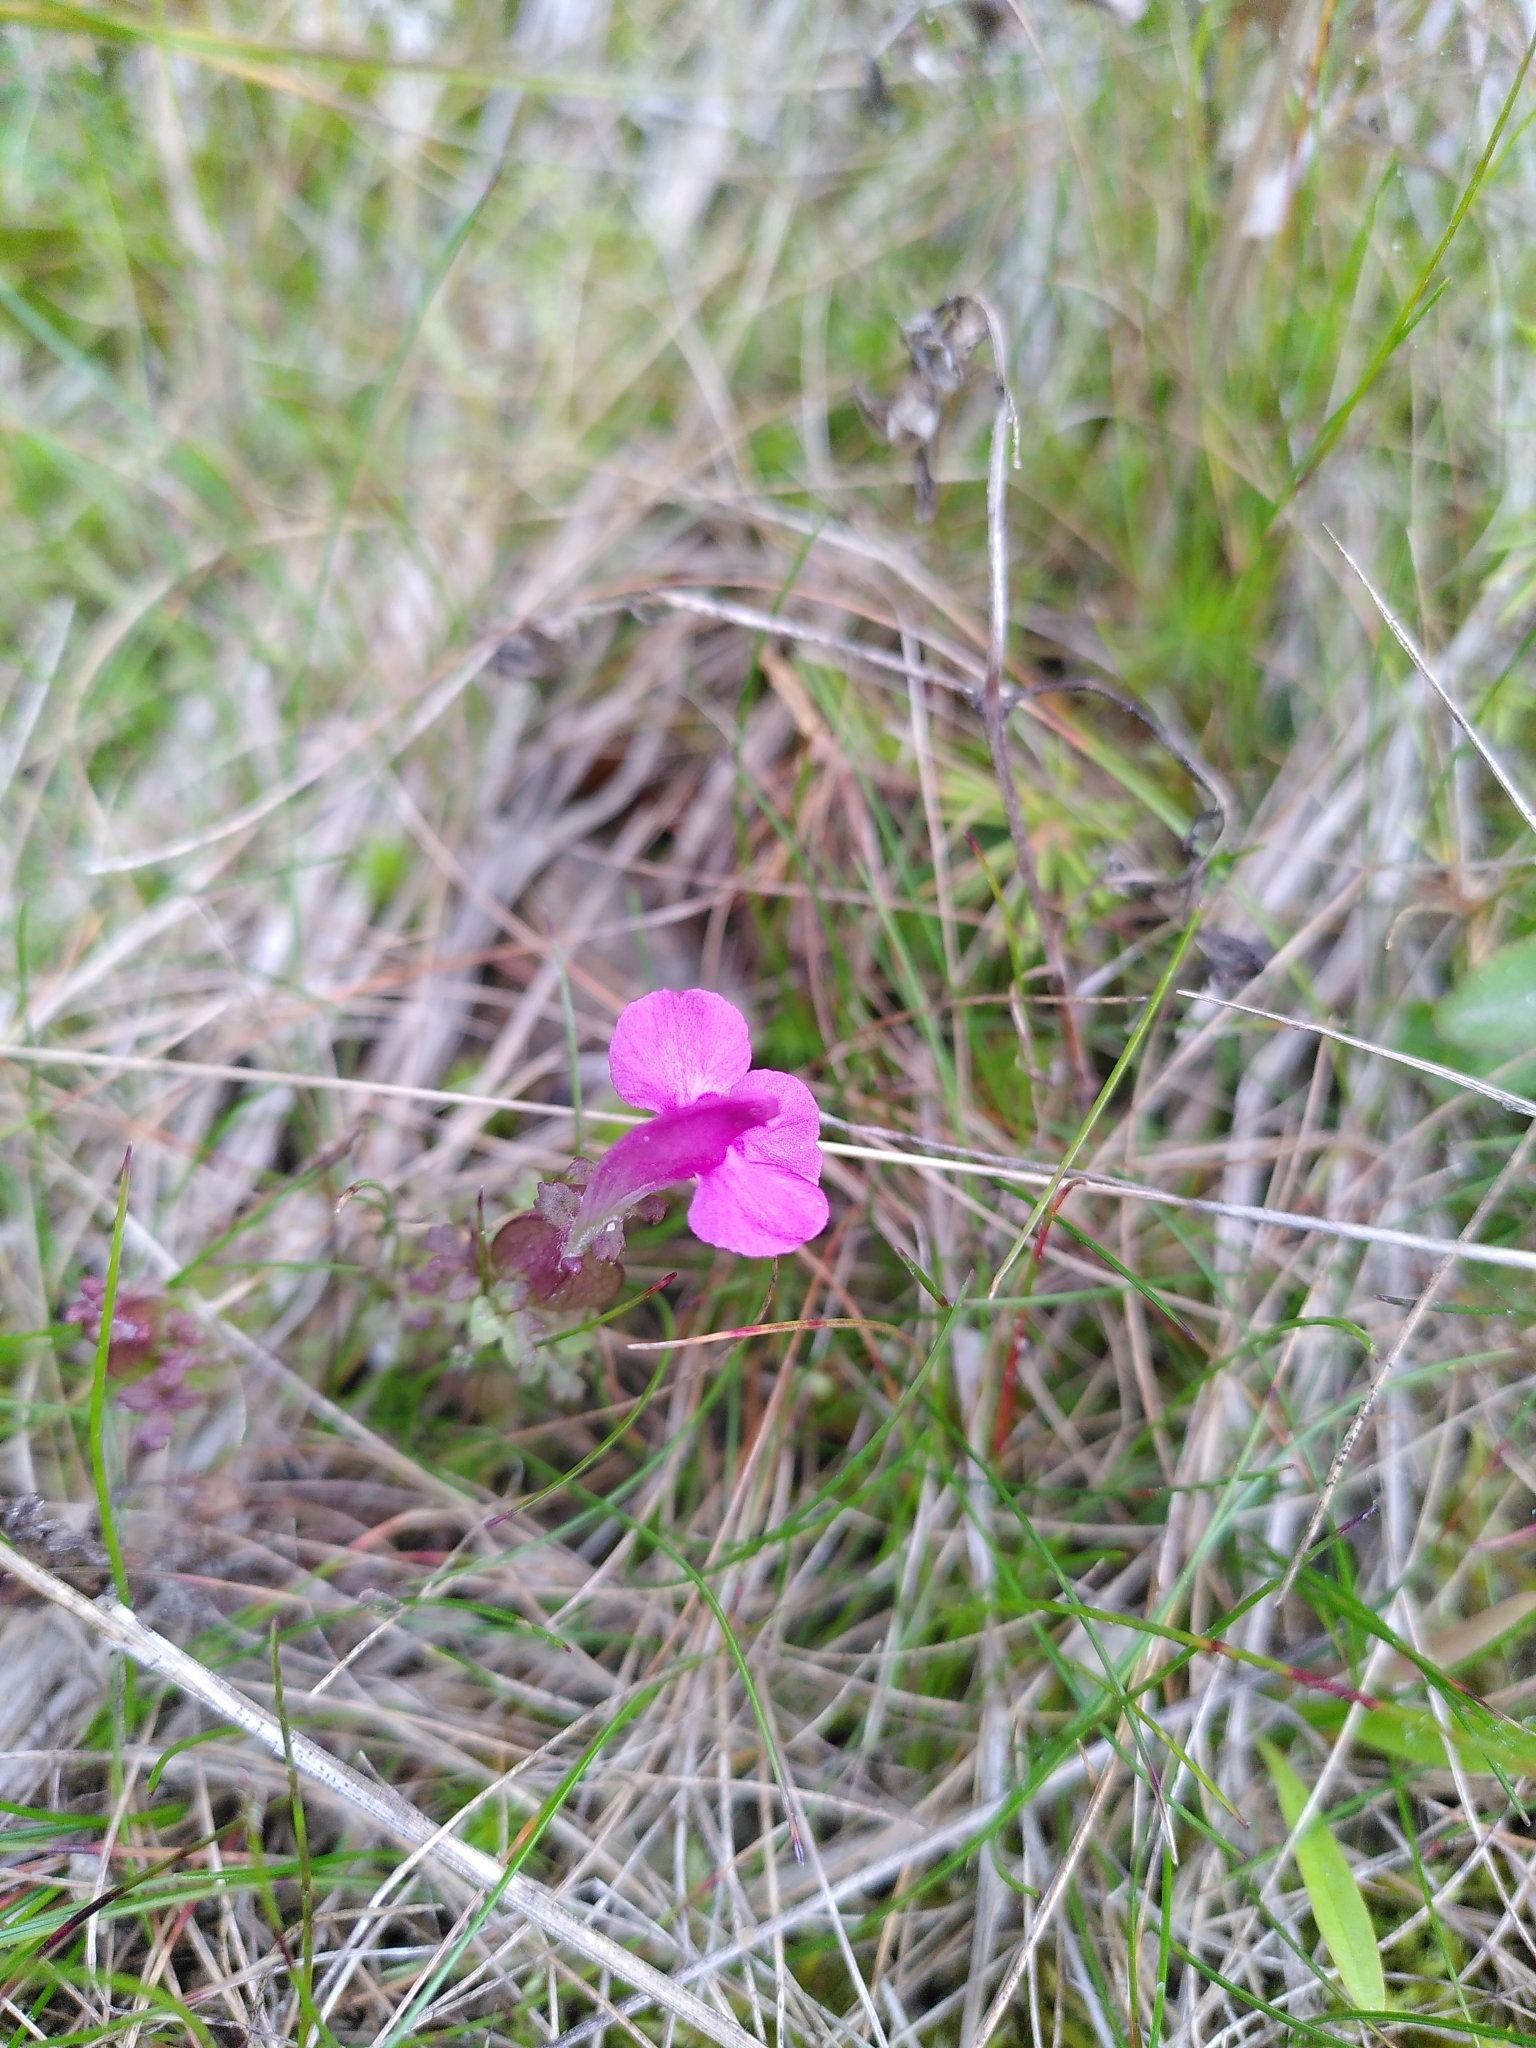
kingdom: Plantae
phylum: Tracheophyta
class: Magnoliopsida
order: Lamiales
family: Orobanchaceae
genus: Pedicularis
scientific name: Pedicularis sylvatica
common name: Lousewort
